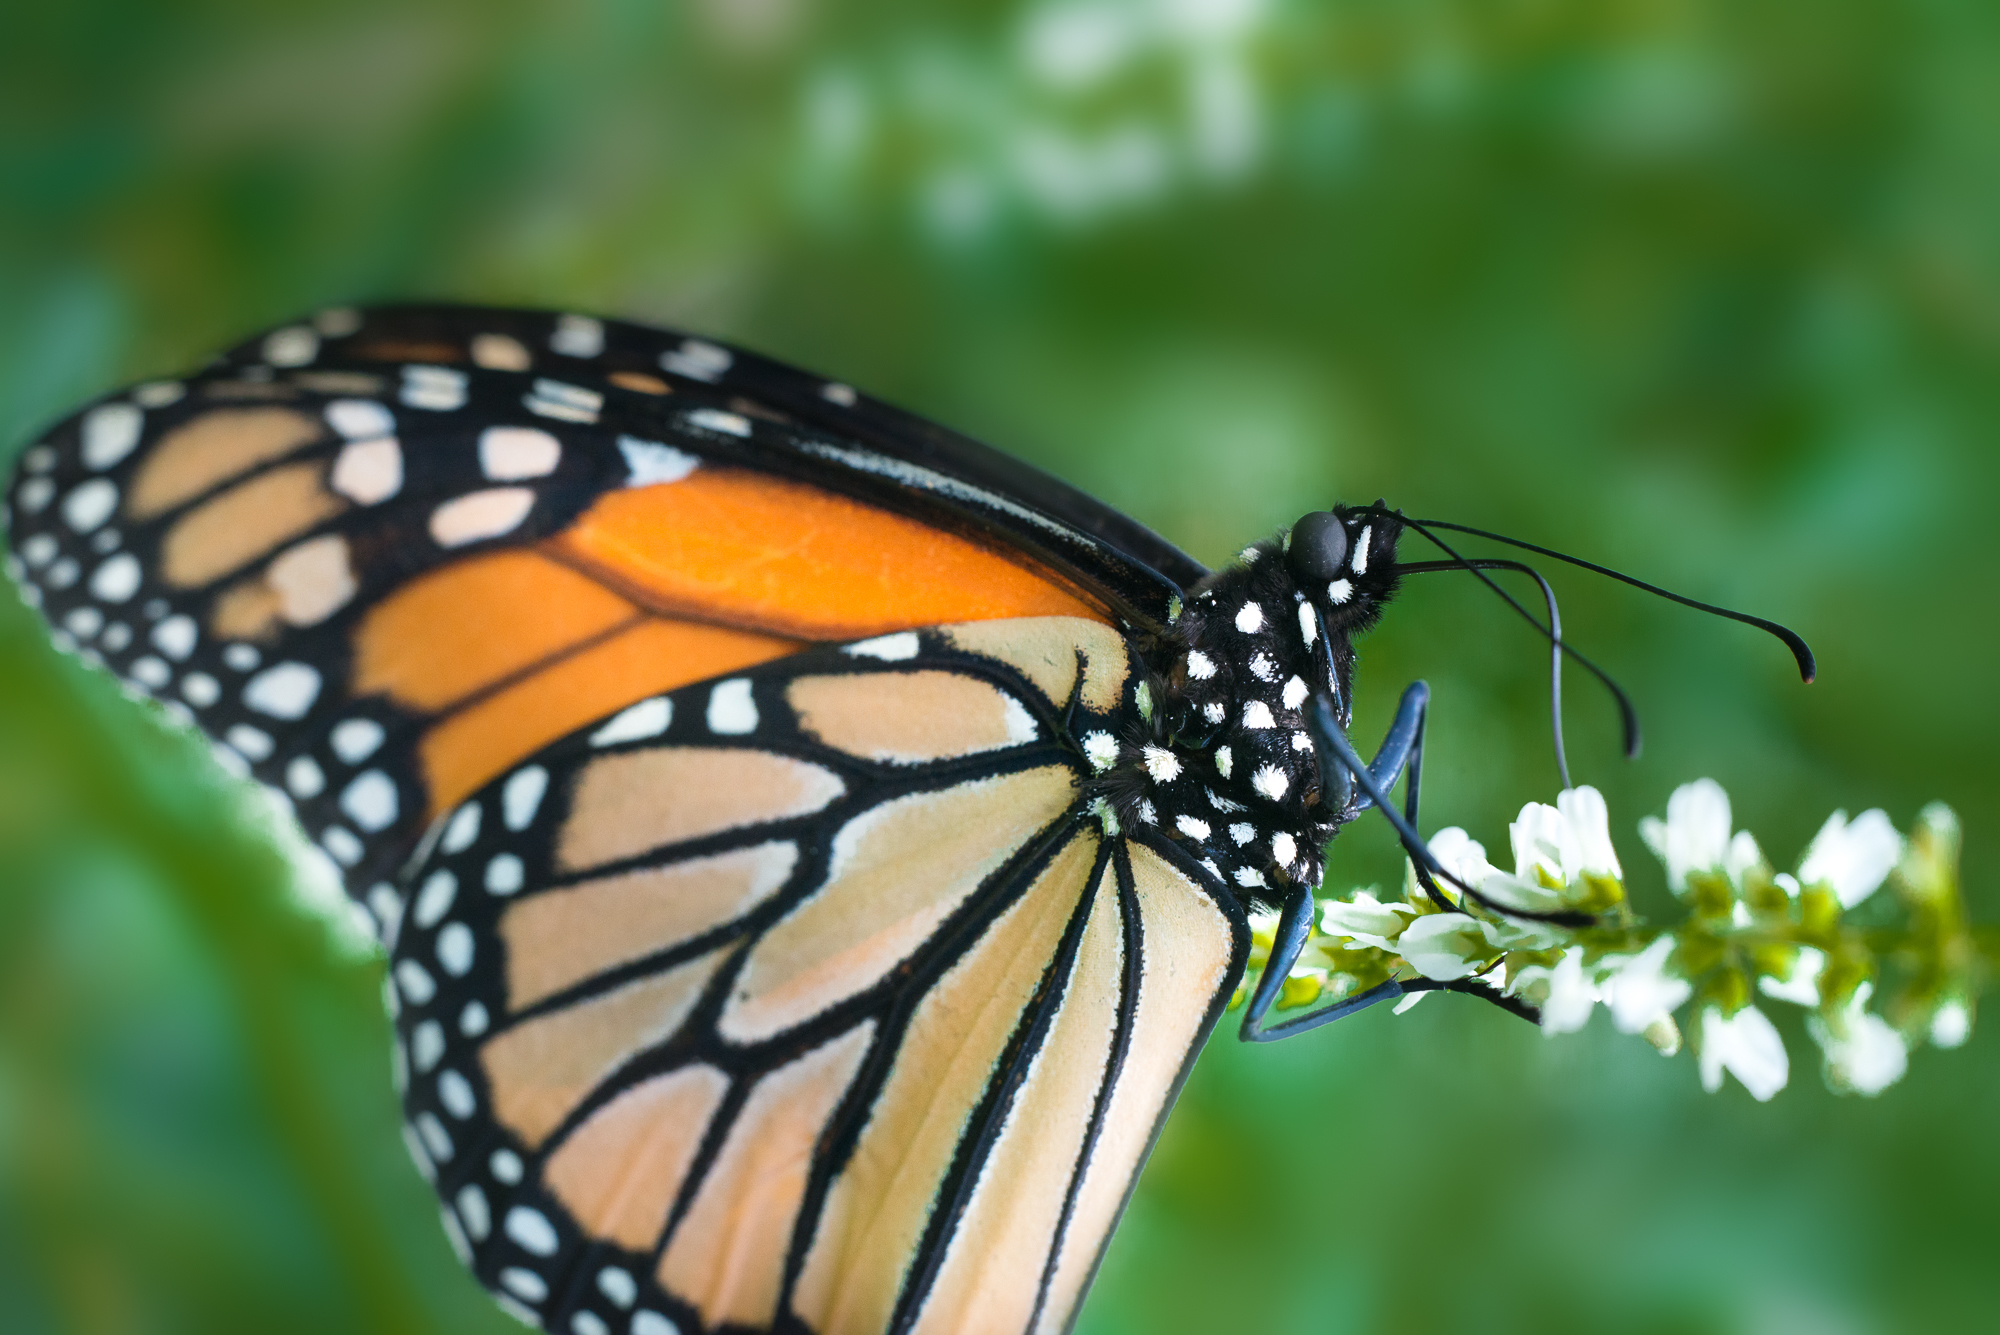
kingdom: Animalia
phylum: Arthropoda
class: Insecta
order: Lepidoptera
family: Nymphalidae
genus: Danaus
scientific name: Danaus plexippus
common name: Monarch
